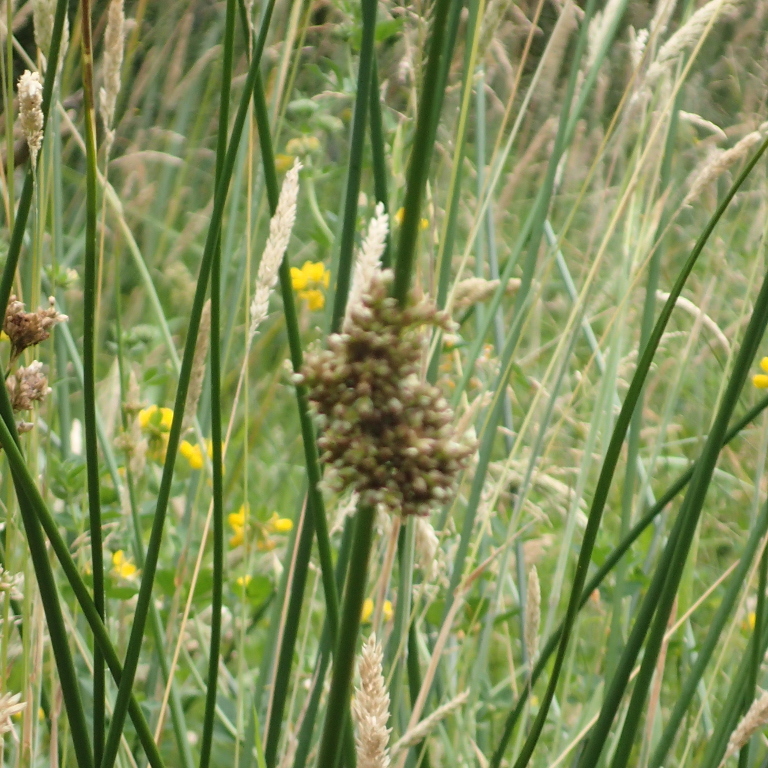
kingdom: Plantae
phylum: Tracheophyta
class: Liliopsida
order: Poales
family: Juncaceae
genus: Juncus
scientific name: Juncus pallidus
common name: Great soft-rush
